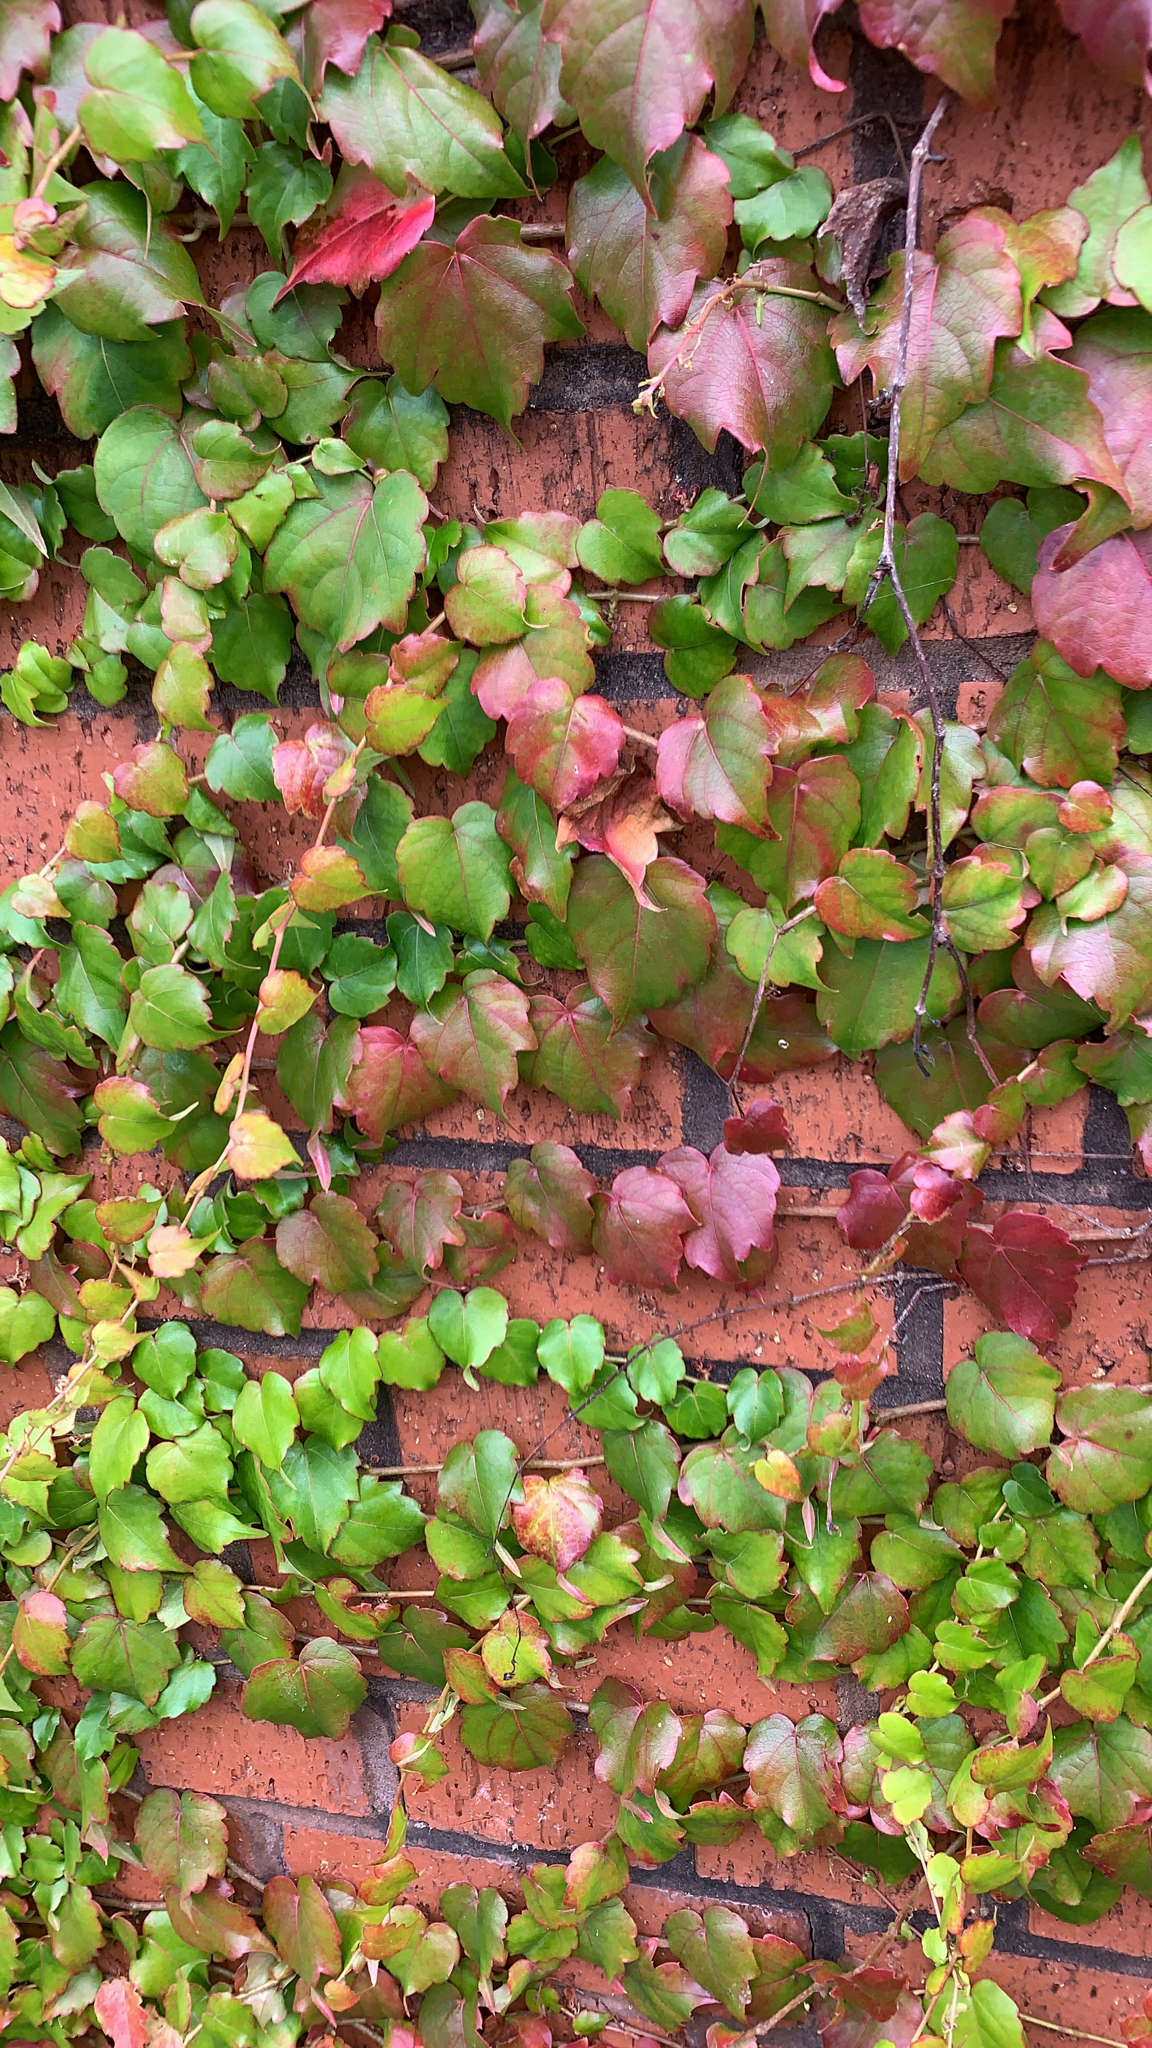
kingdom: Plantae
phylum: Tracheophyta
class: Magnoliopsida
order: Vitales
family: Vitaceae
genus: Parthenocissus
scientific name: Parthenocissus tricuspidata
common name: Boston ivy
